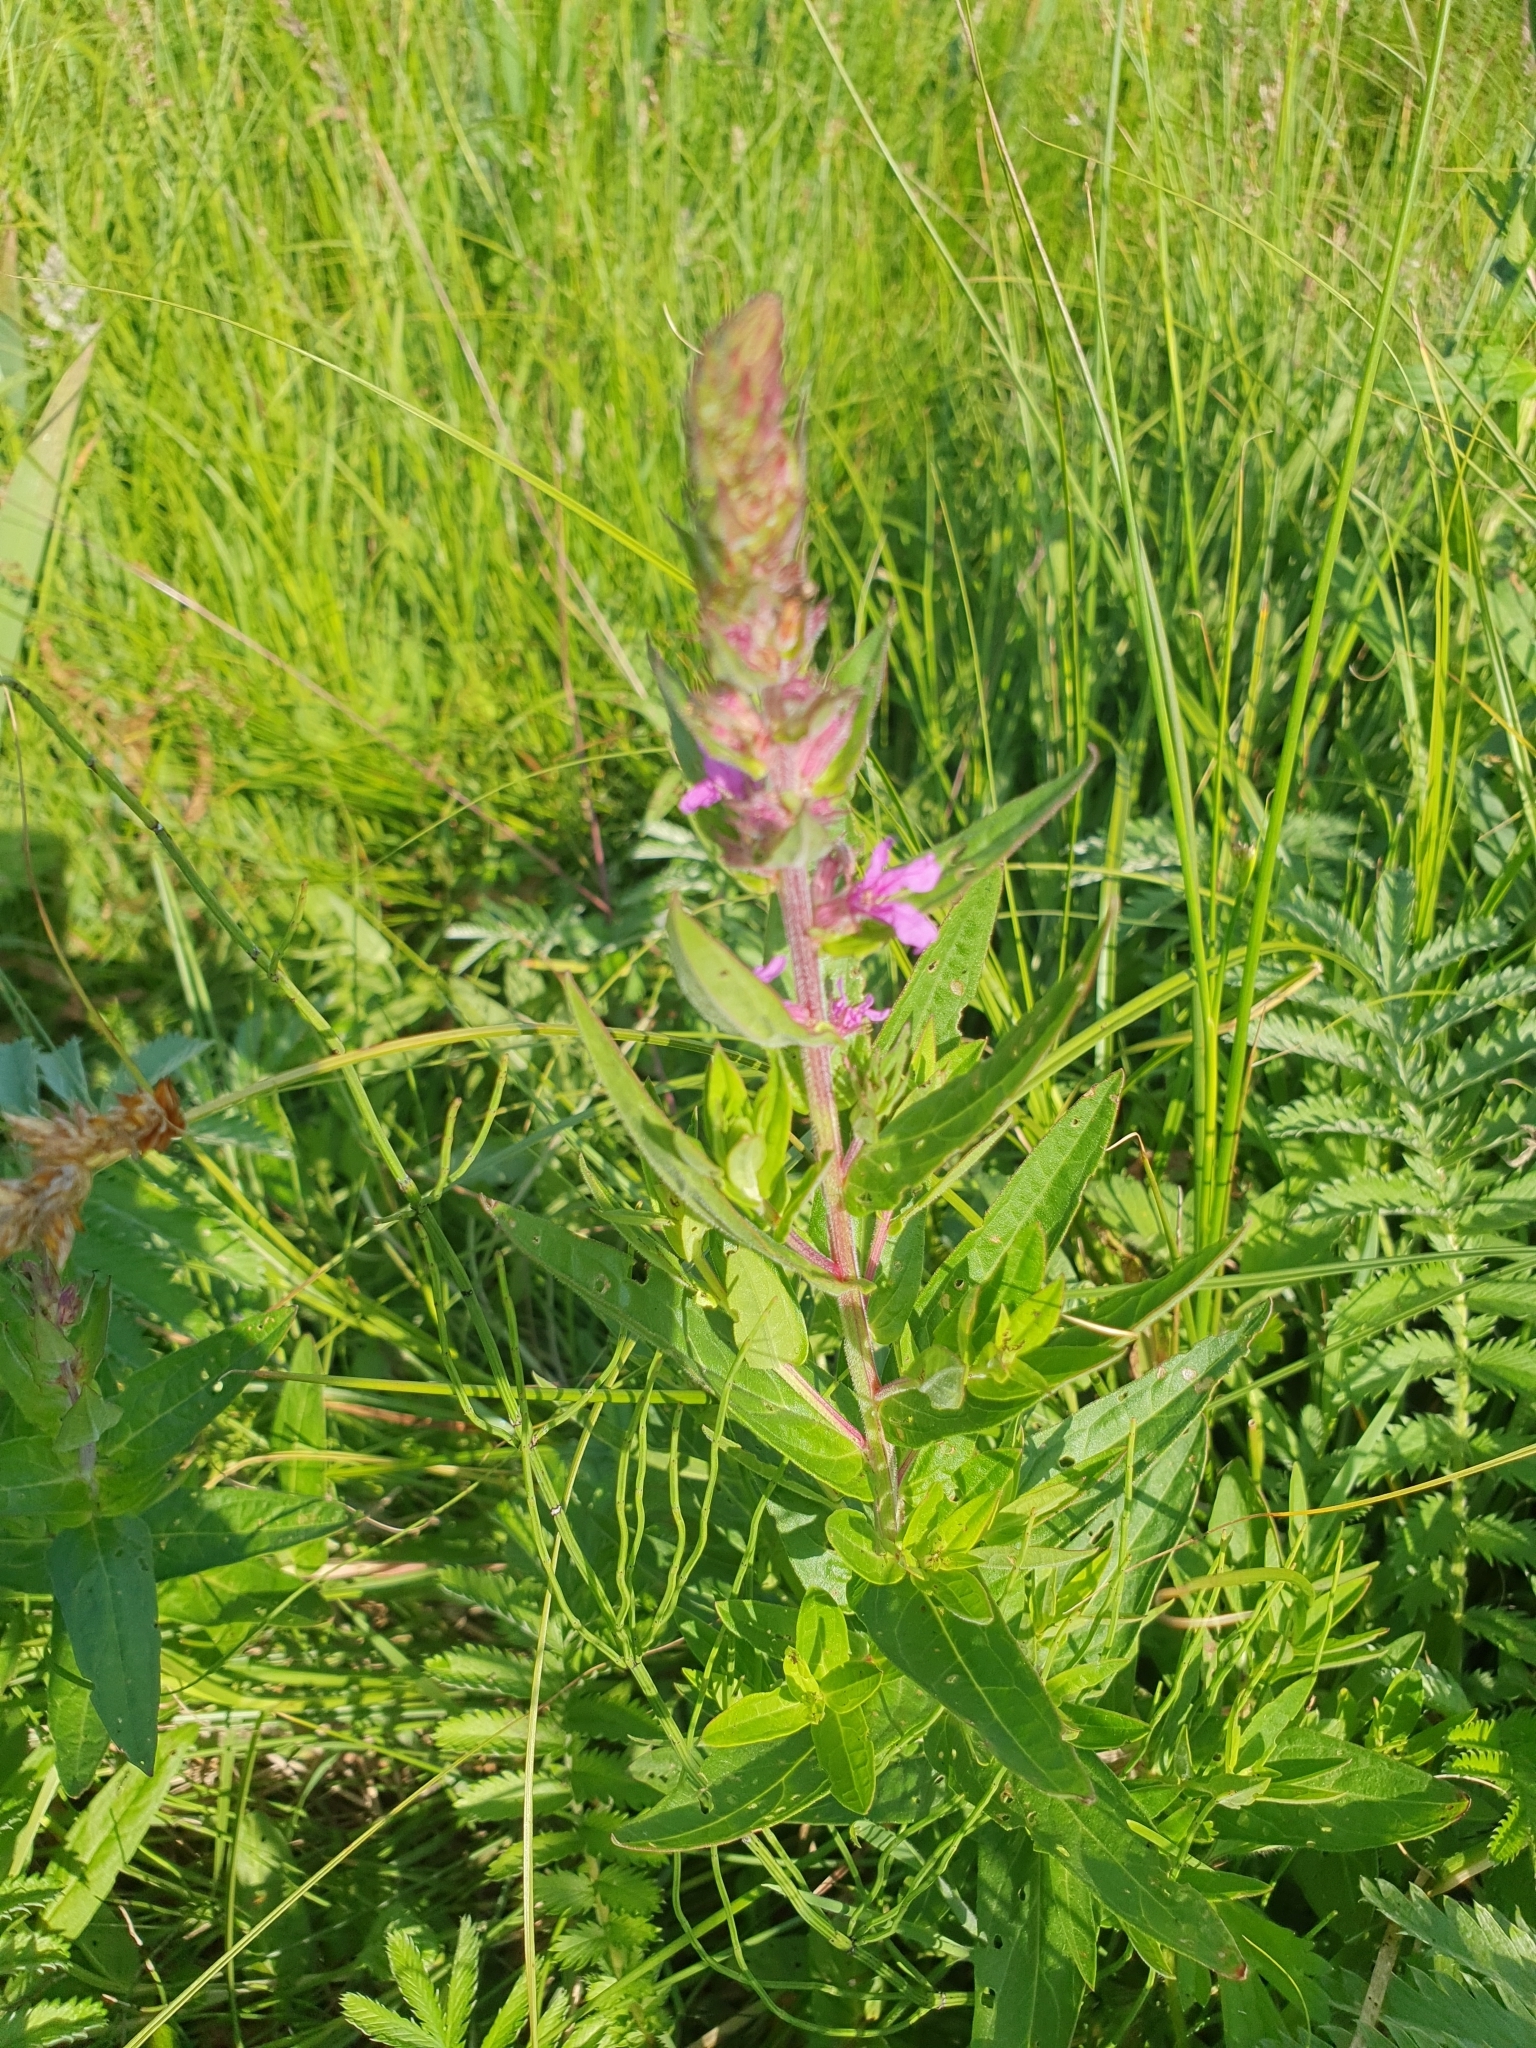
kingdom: Plantae
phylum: Tracheophyta
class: Magnoliopsida
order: Myrtales
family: Lythraceae
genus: Lythrum
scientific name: Lythrum salicaria
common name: Purple loosestrife
